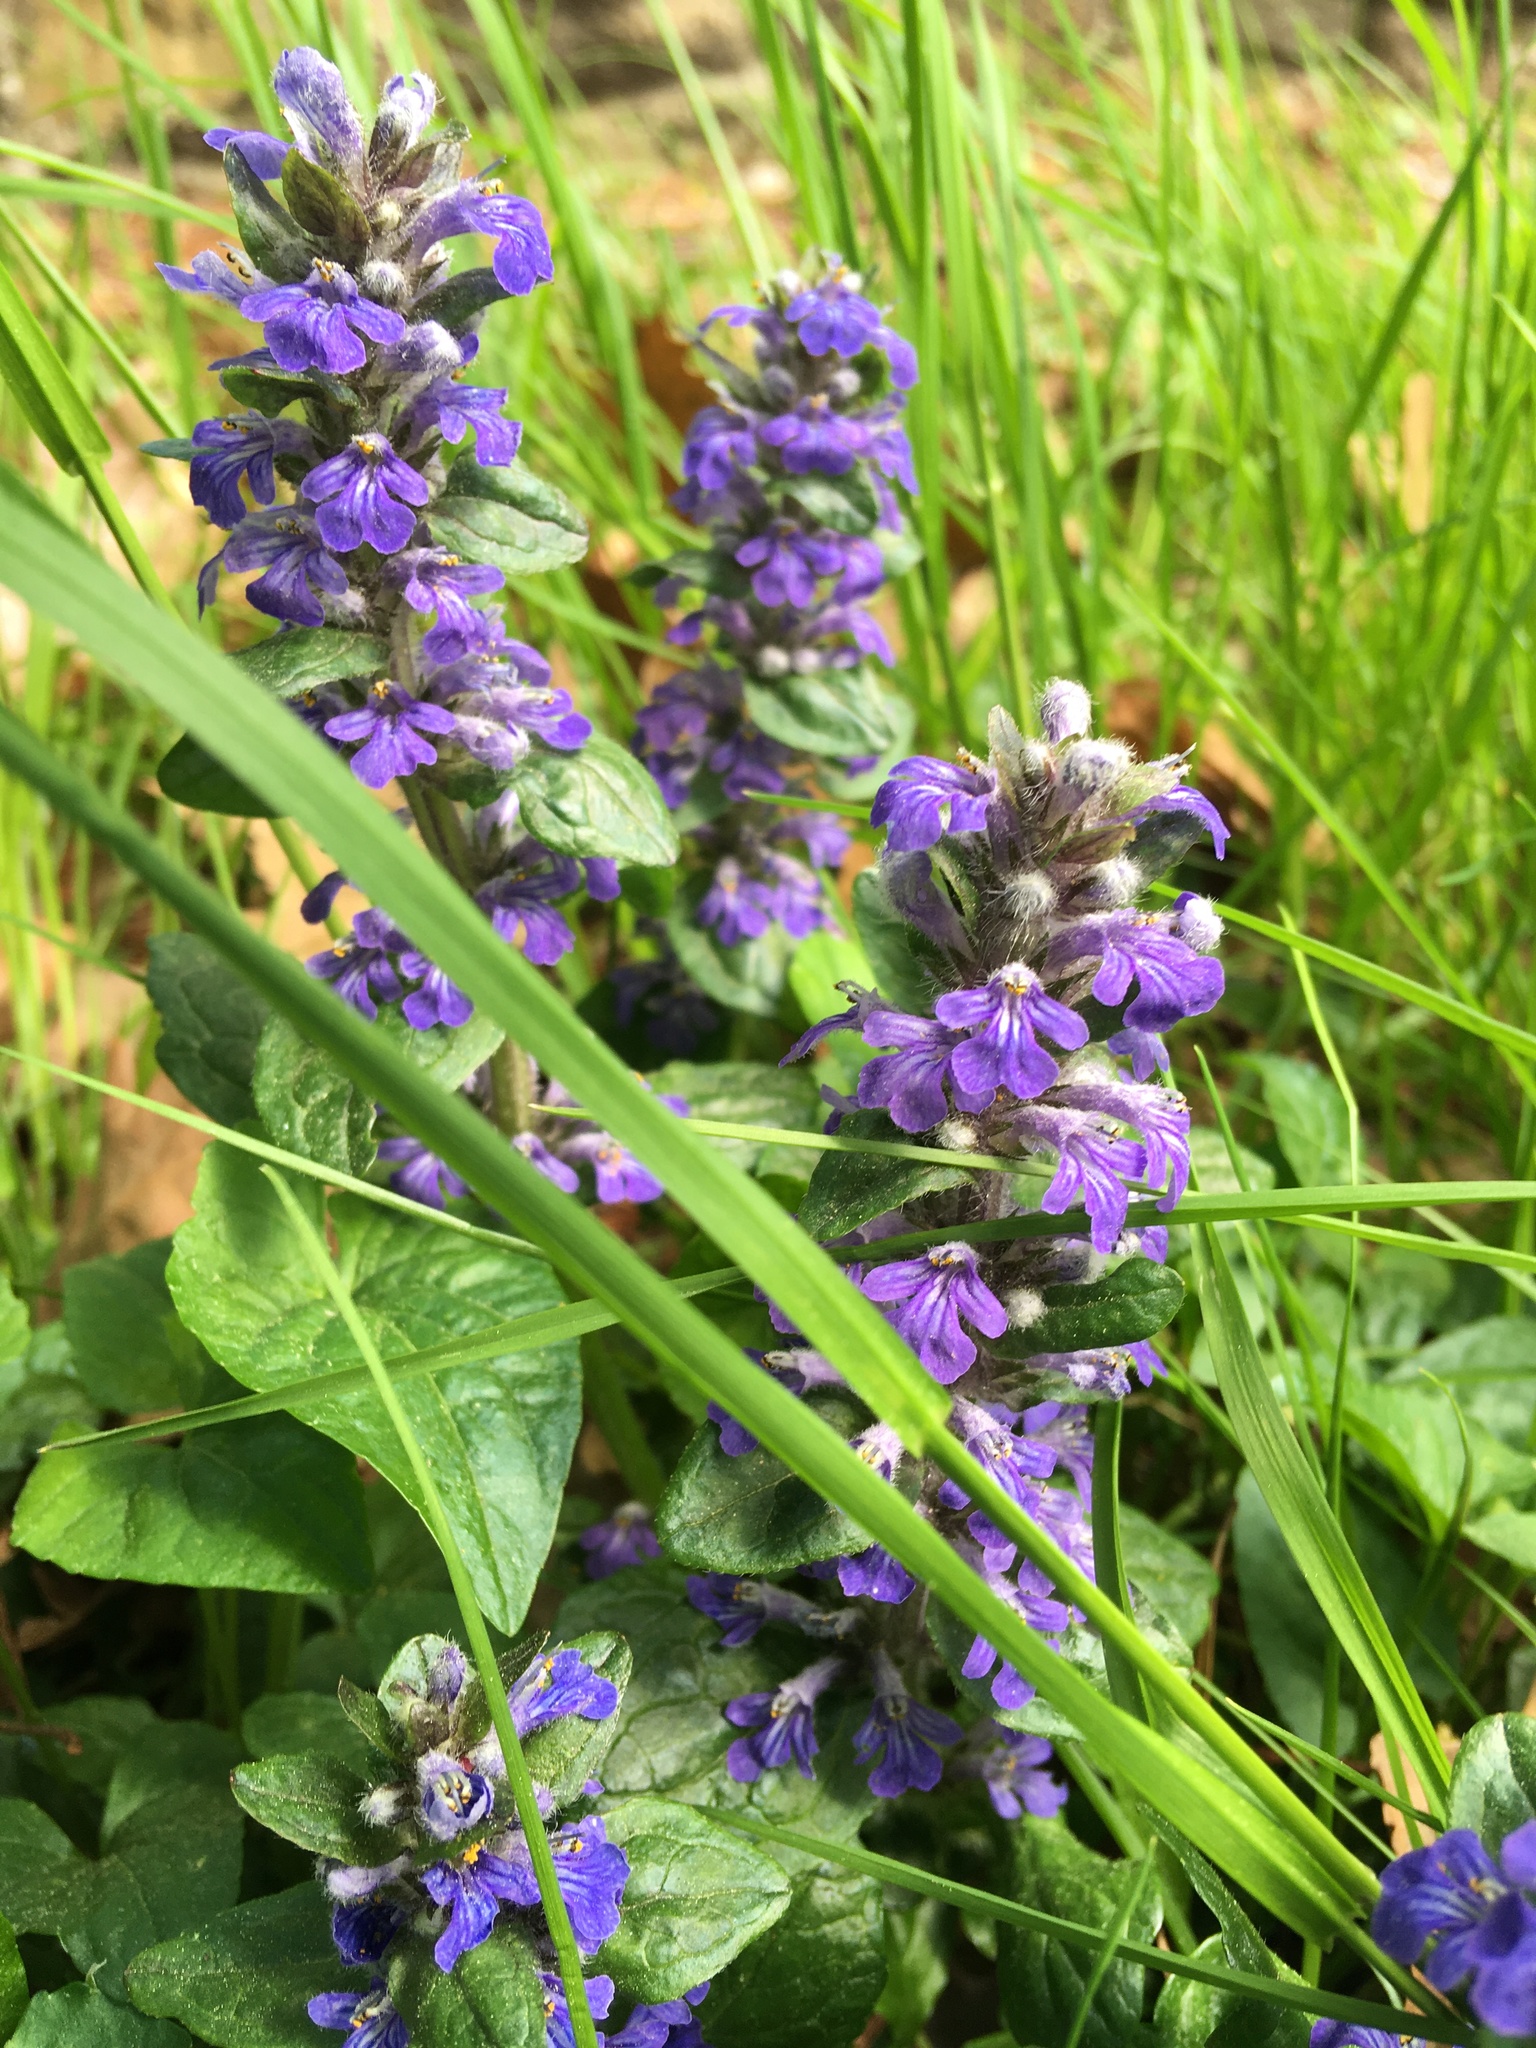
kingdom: Plantae
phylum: Tracheophyta
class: Magnoliopsida
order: Lamiales
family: Lamiaceae
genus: Ajuga
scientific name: Ajuga reptans
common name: Bugle
